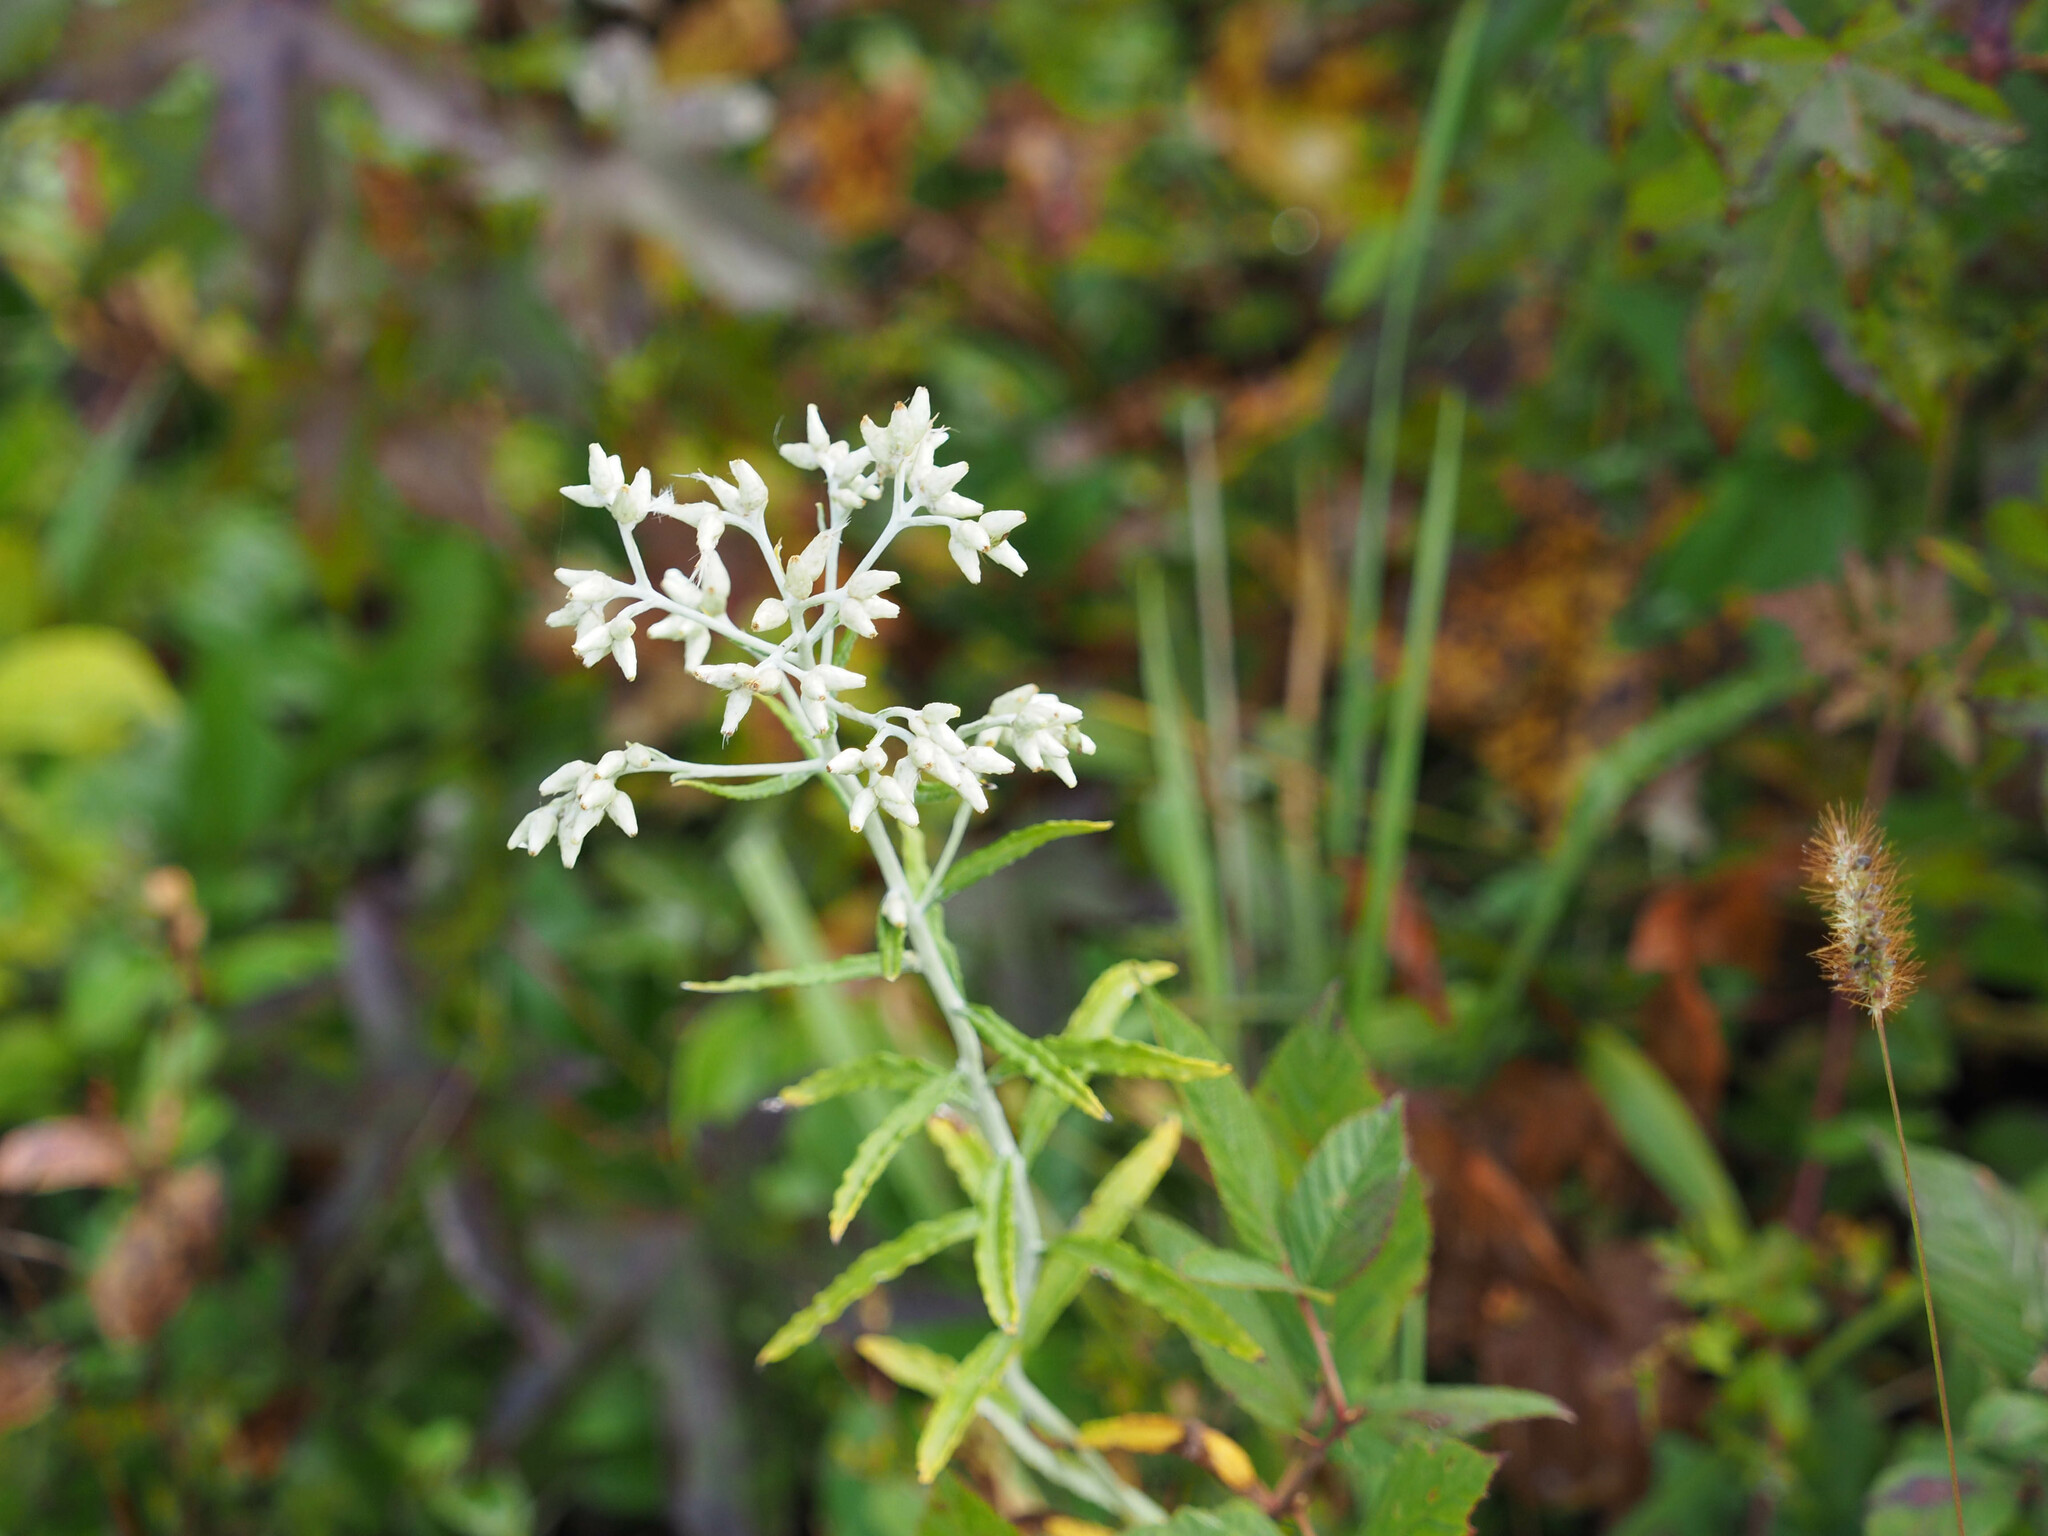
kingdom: Plantae
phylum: Tracheophyta
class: Magnoliopsida
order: Asterales
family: Asteraceae
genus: Pseudognaphalium
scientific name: Pseudognaphalium obtusifolium
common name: Eastern rabbit-tobacco
